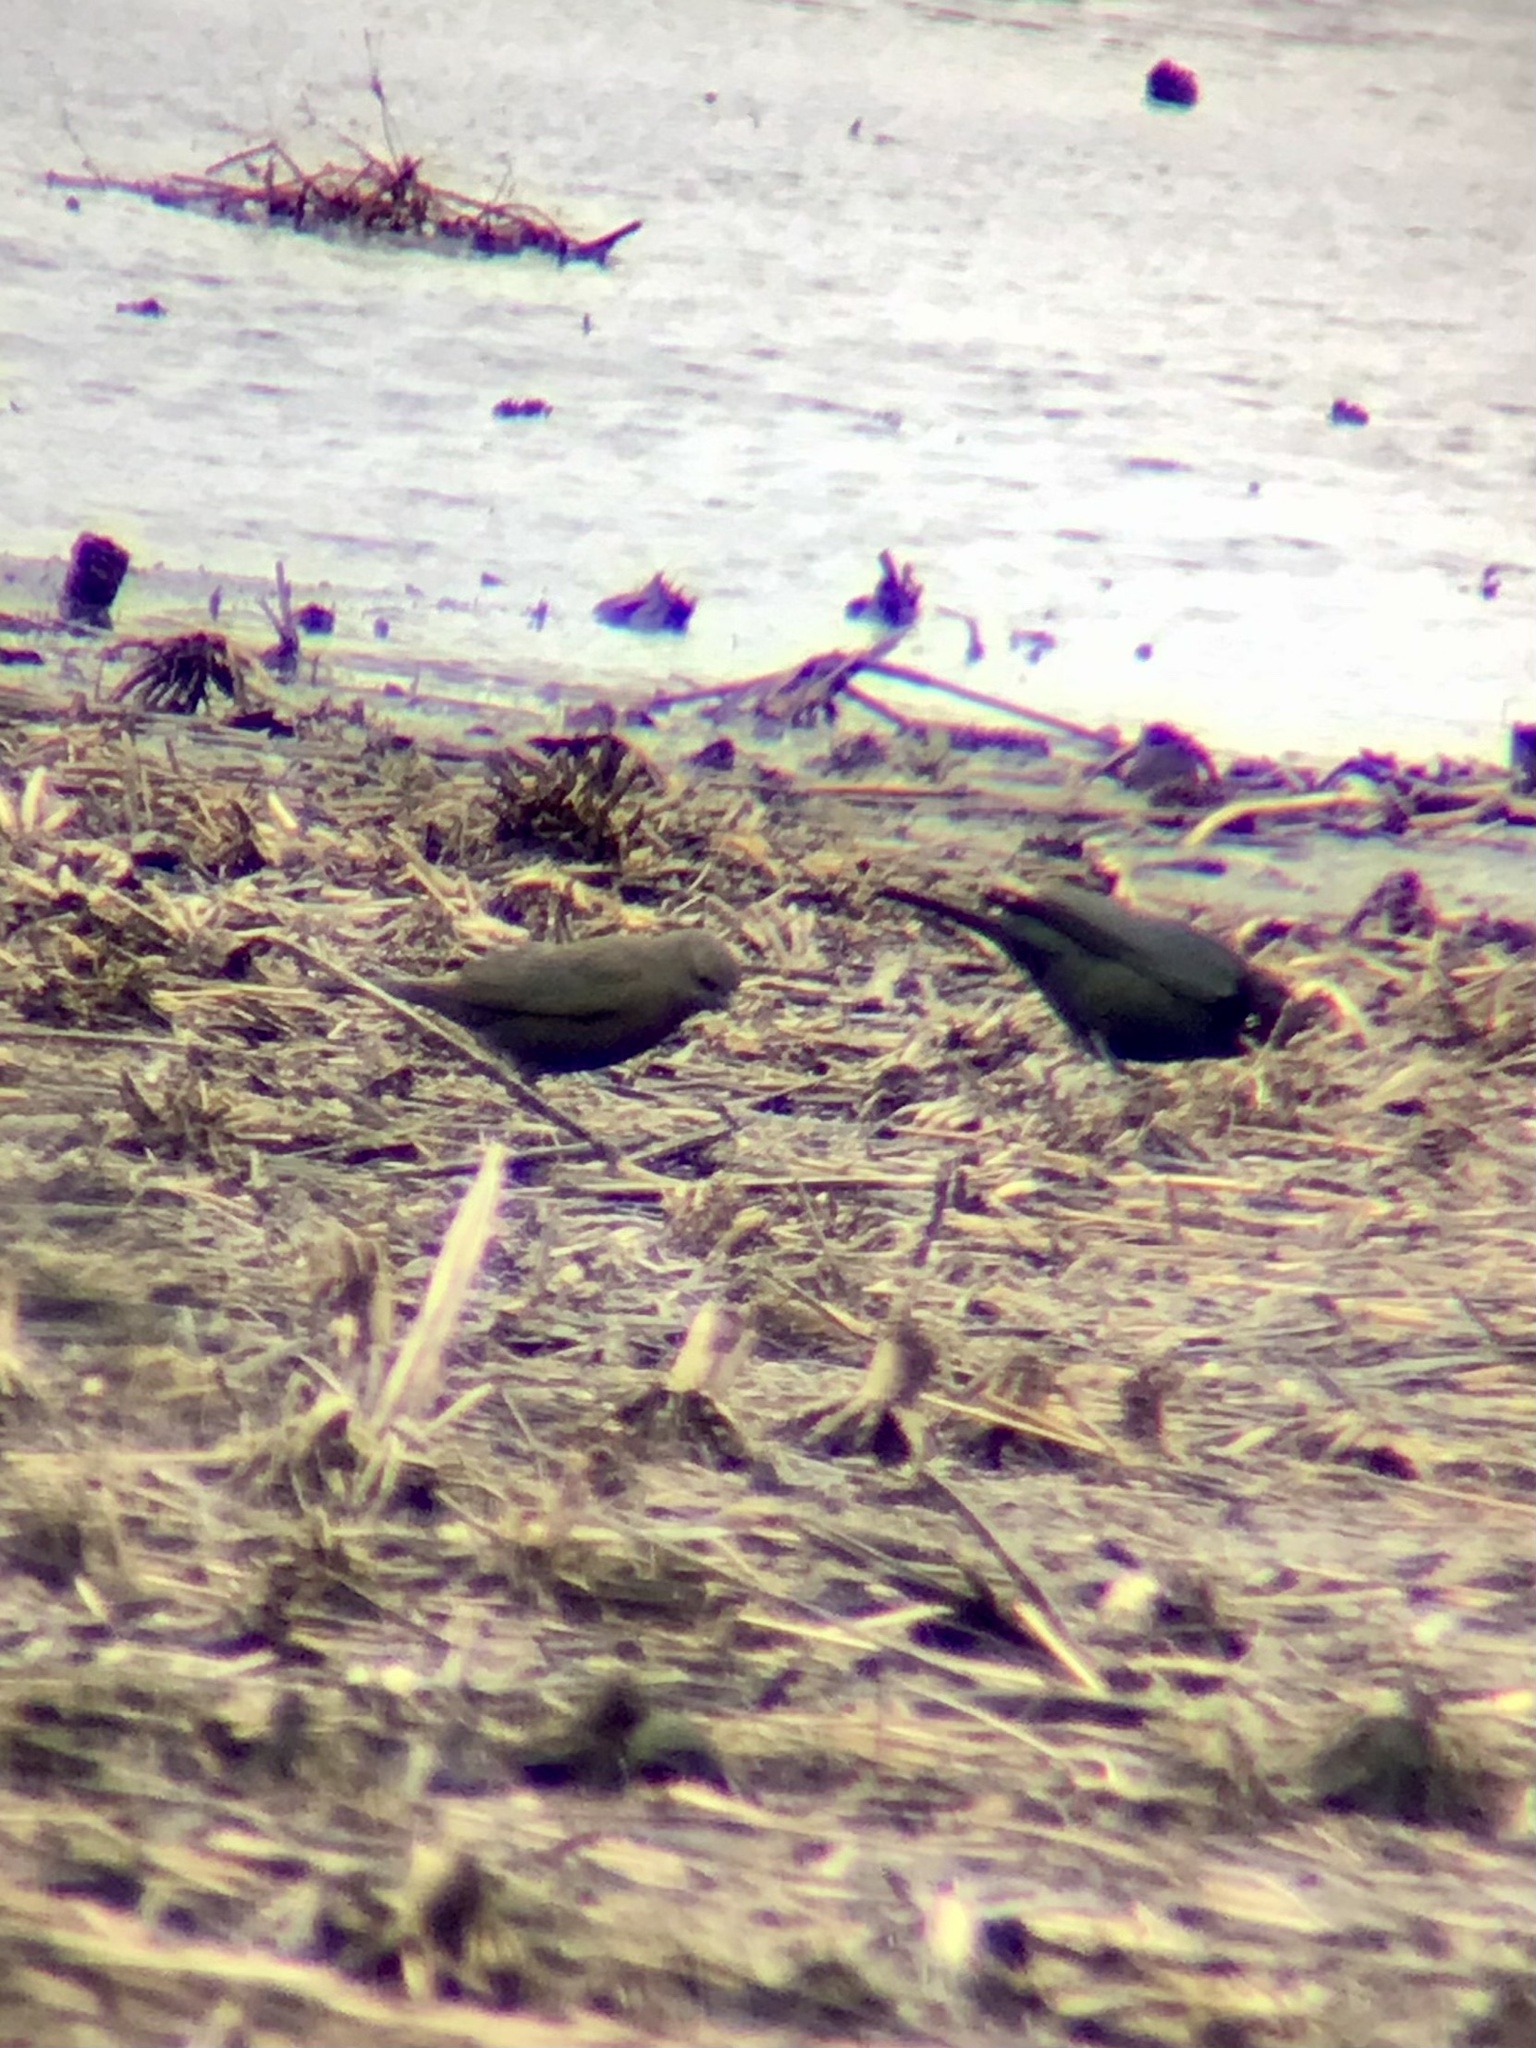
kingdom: Animalia
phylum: Chordata
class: Aves
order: Passeriformes
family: Icteridae
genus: Euphagus
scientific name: Euphagus cyanocephalus
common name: Brewer's blackbird
